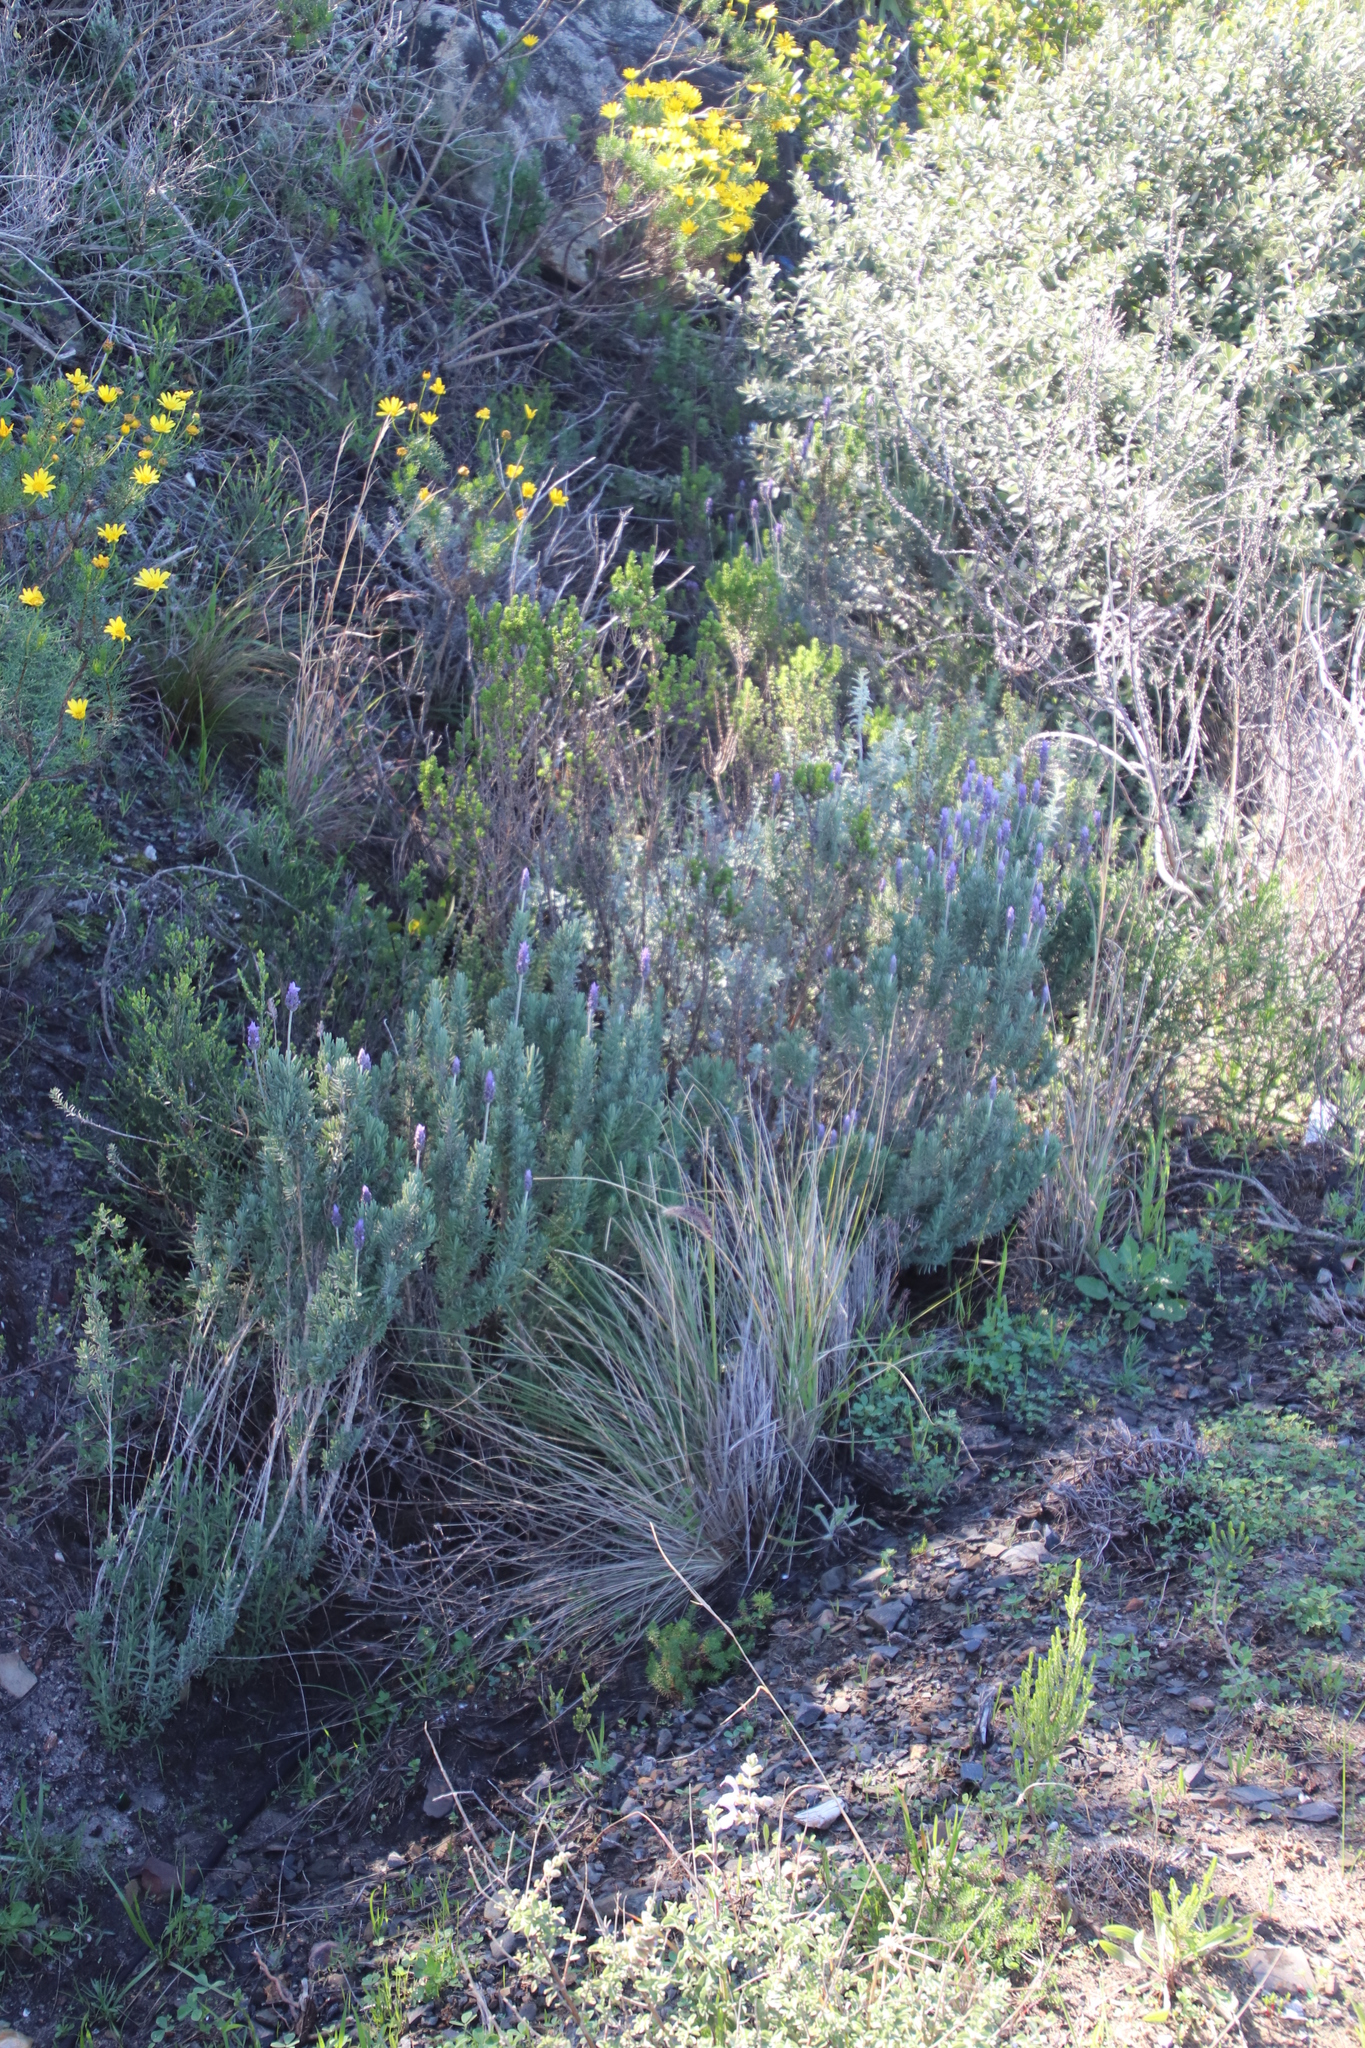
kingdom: Plantae
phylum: Tracheophyta
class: Magnoliopsida
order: Lamiales
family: Lamiaceae
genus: Lavandula
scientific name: Lavandula dentata
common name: French lavender
